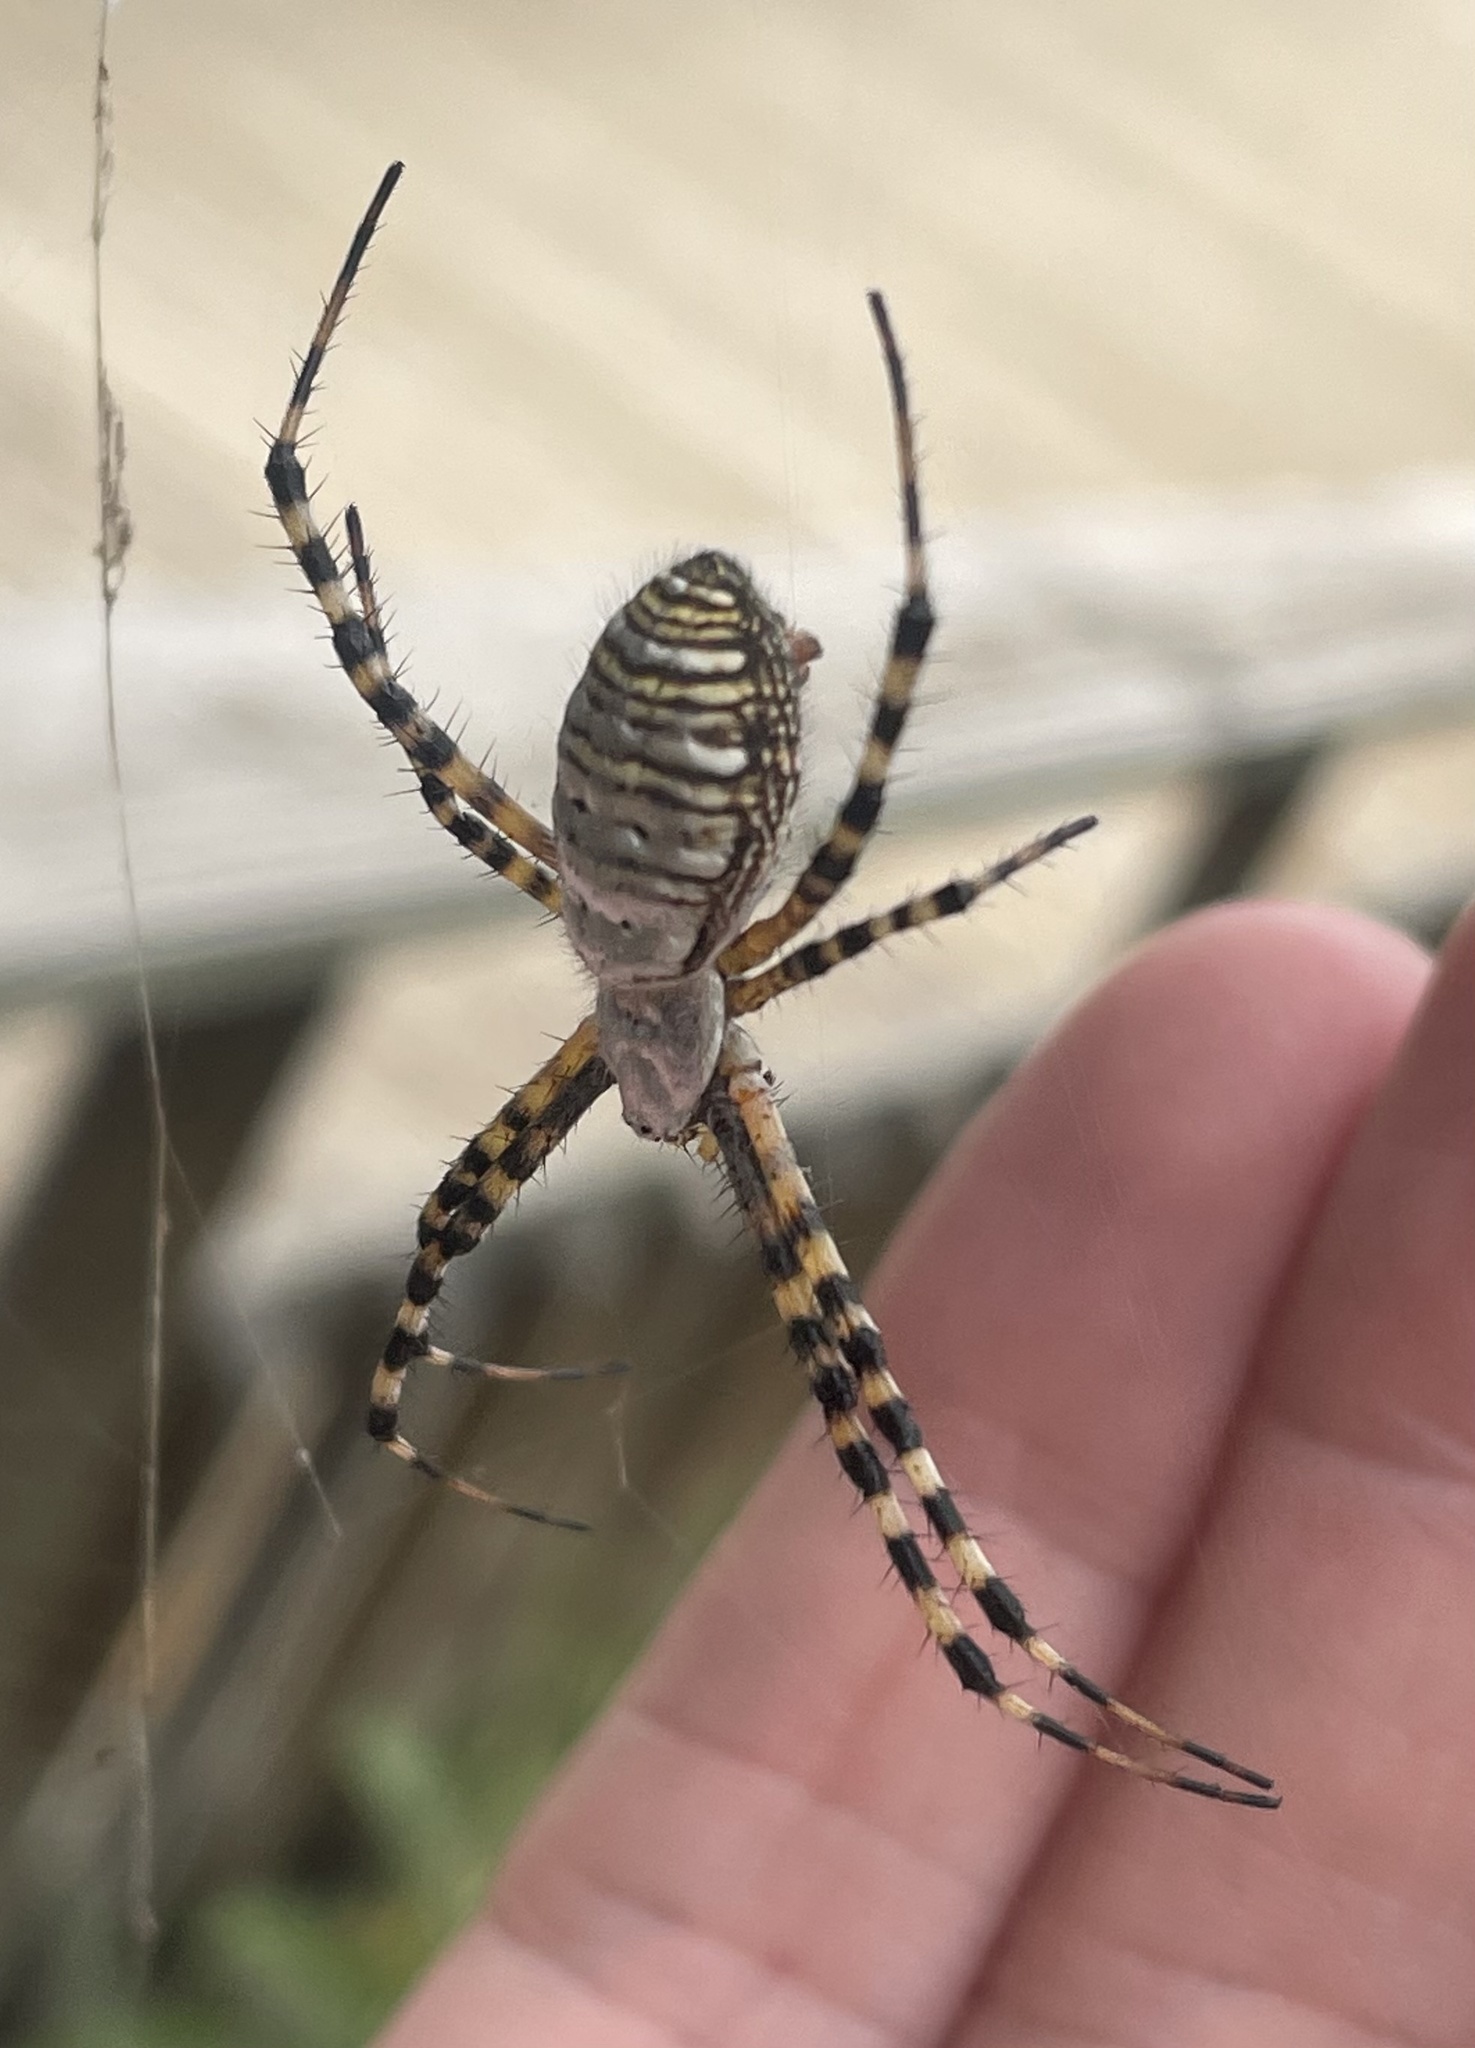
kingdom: Animalia
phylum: Arthropoda
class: Arachnida
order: Araneae
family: Araneidae
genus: Argiope
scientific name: Argiope trifasciata
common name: Banded garden spider
